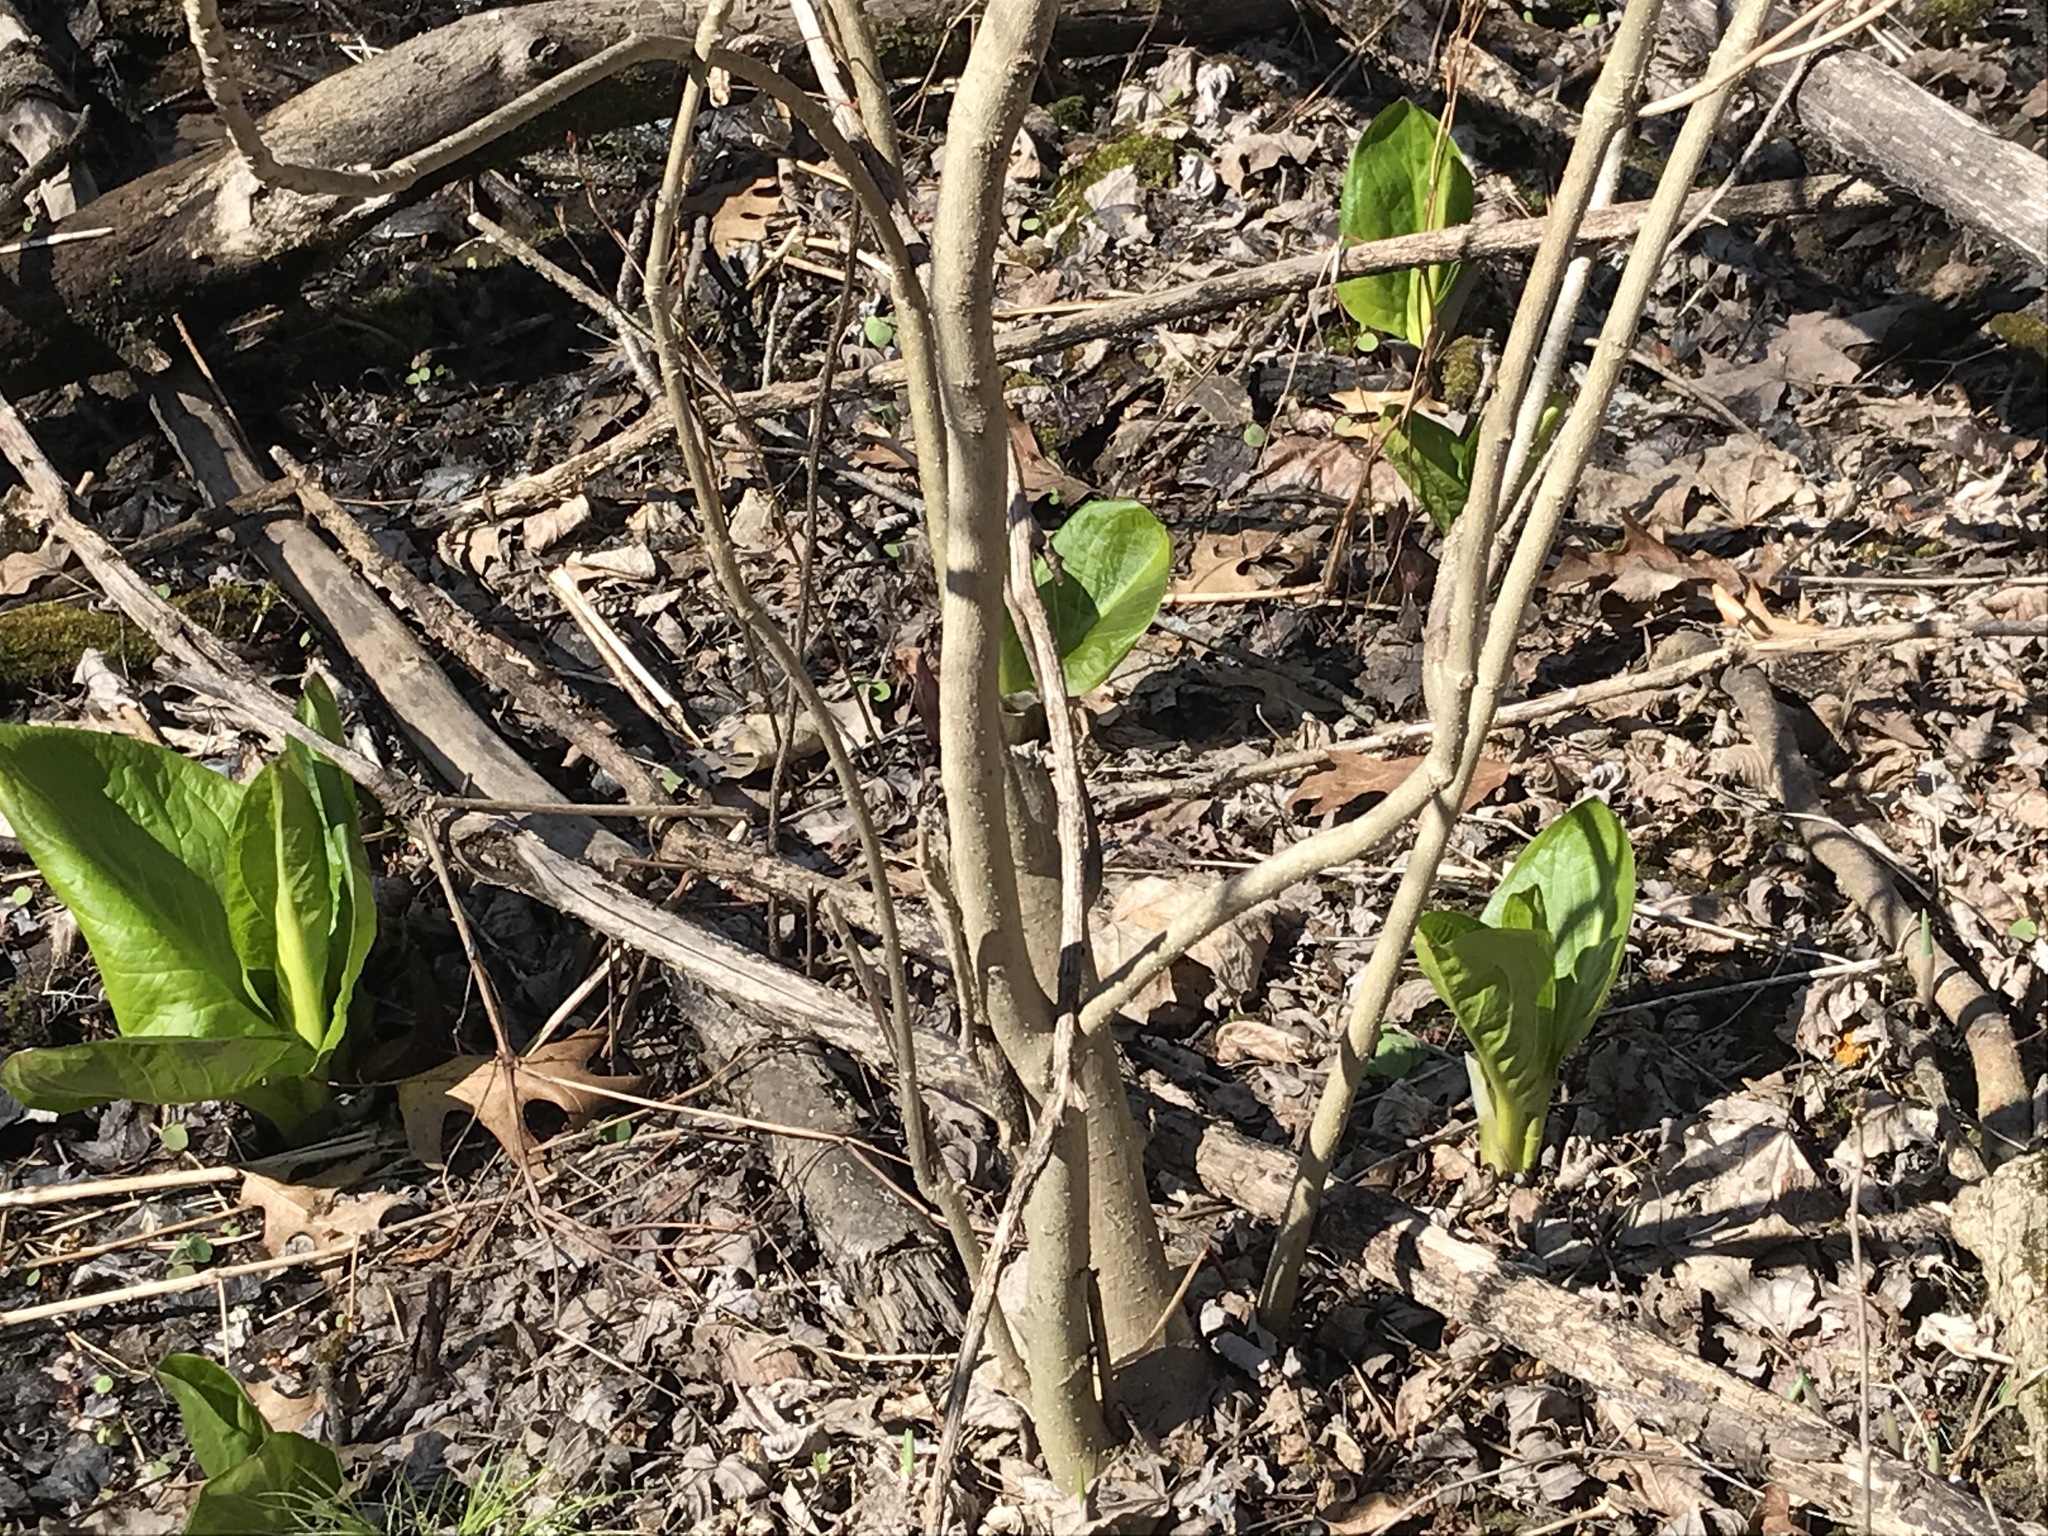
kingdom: Plantae
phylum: Tracheophyta
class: Liliopsida
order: Alismatales
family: Araceae
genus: Symplocarpus
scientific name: Symplocarpus foetidus
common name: Eastern skunk cabbage
